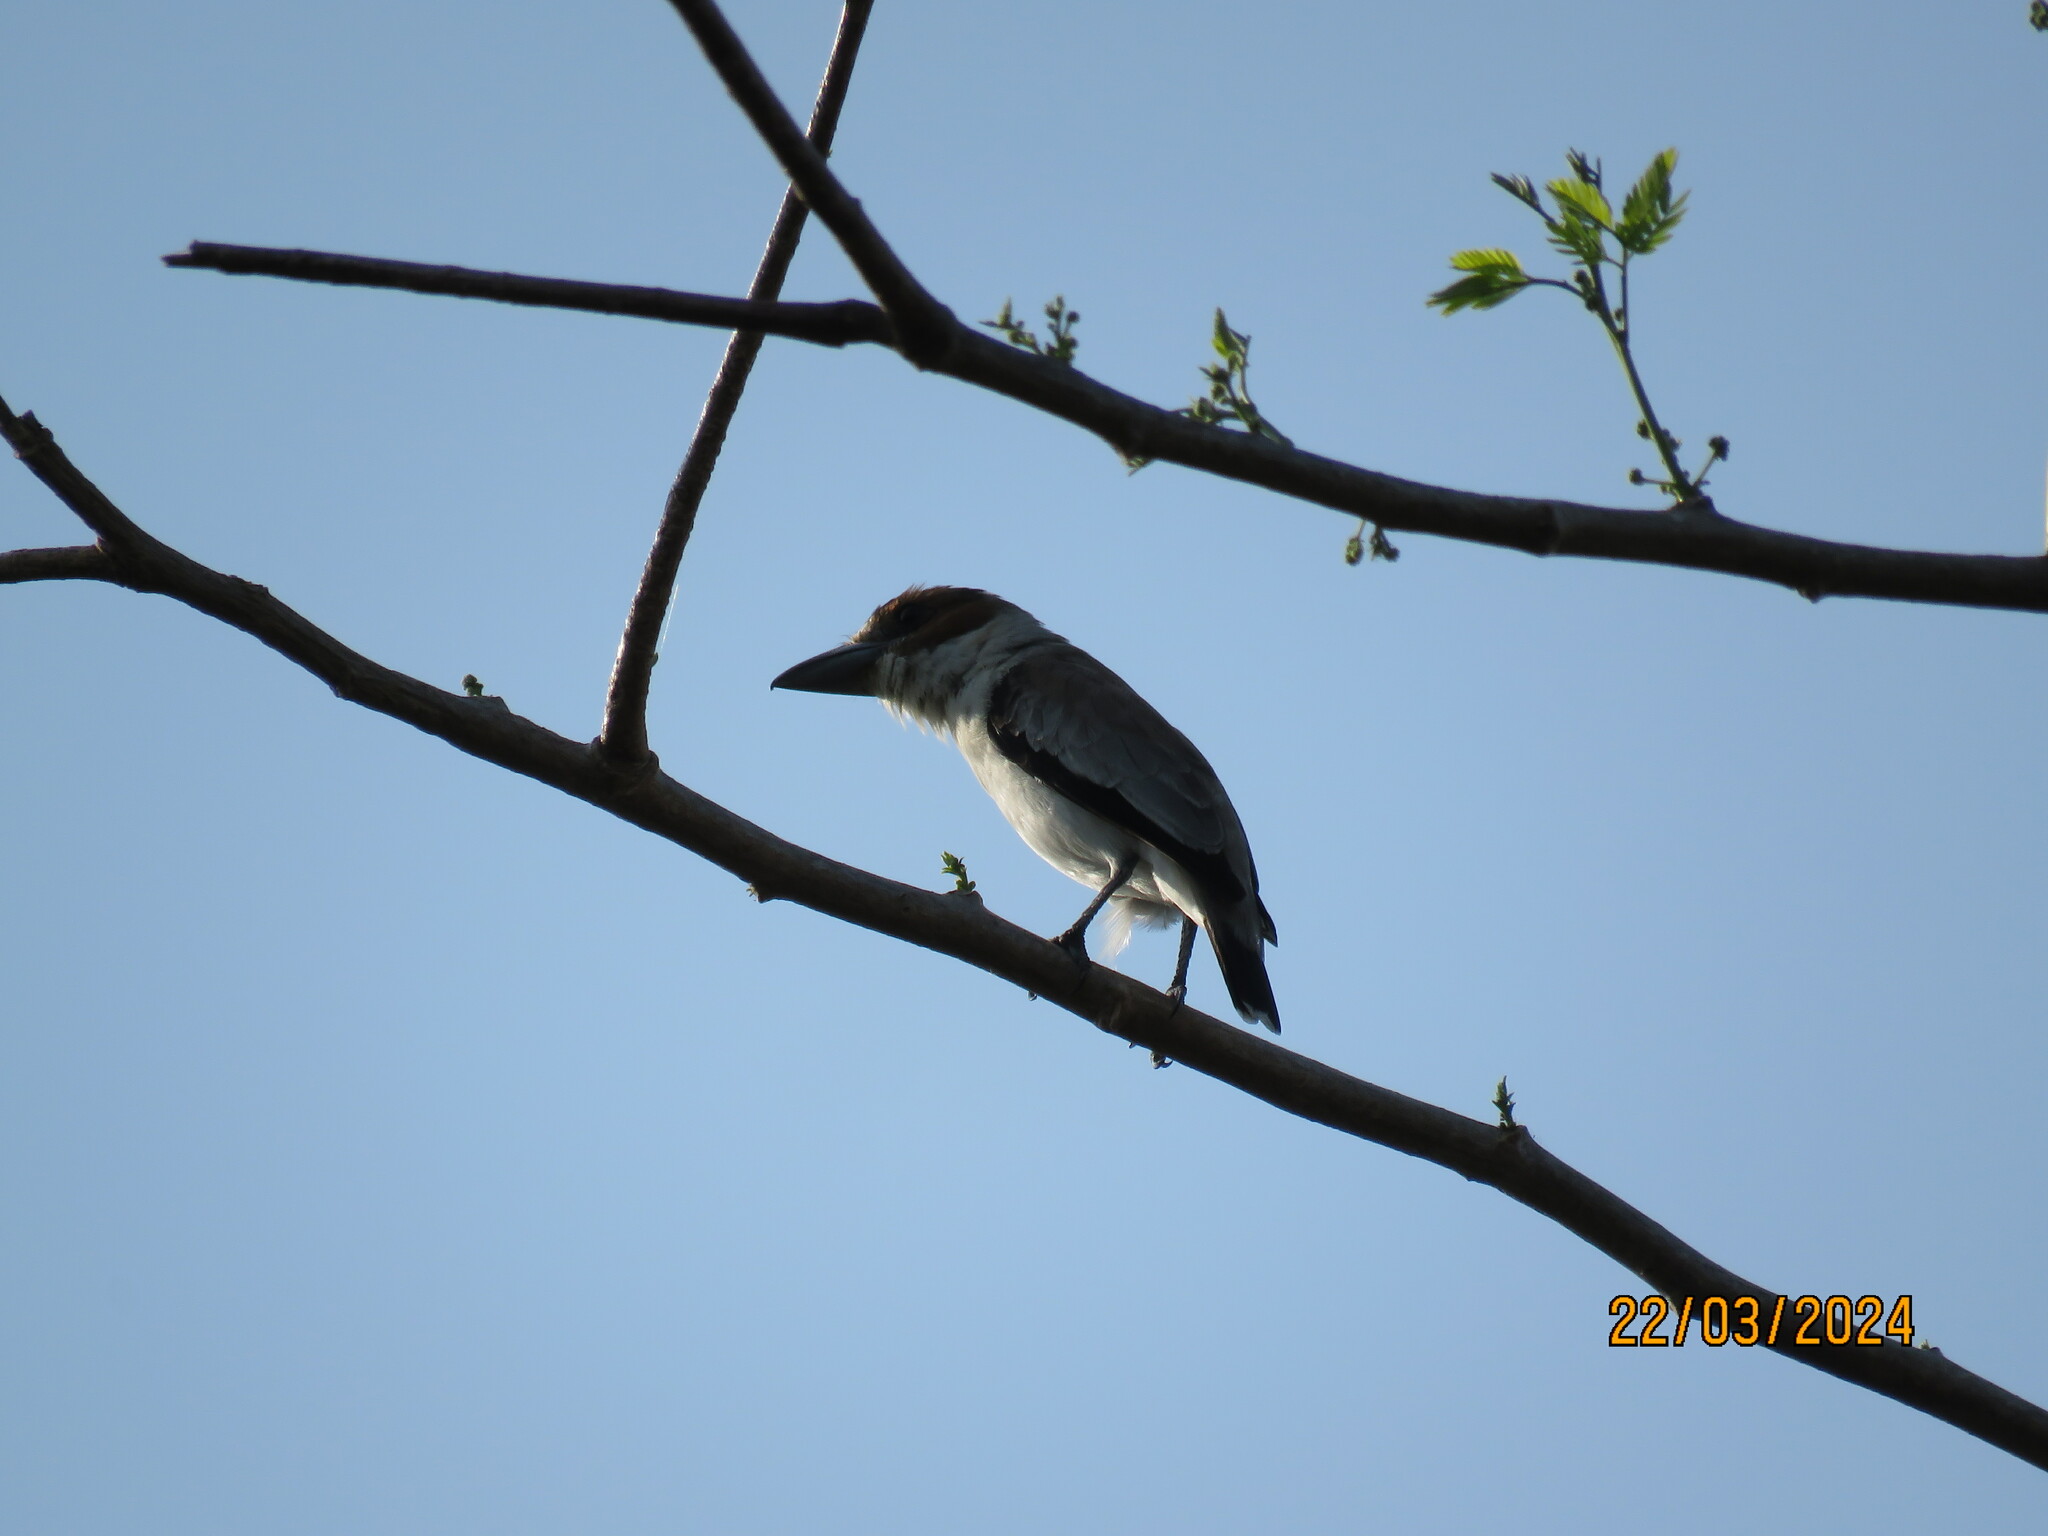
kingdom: Animalia
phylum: Chordata
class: Aves
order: Passeriformes
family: Cotingidae
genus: Tityra
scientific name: Tityra inquisitor
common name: Black-crowned tityra
